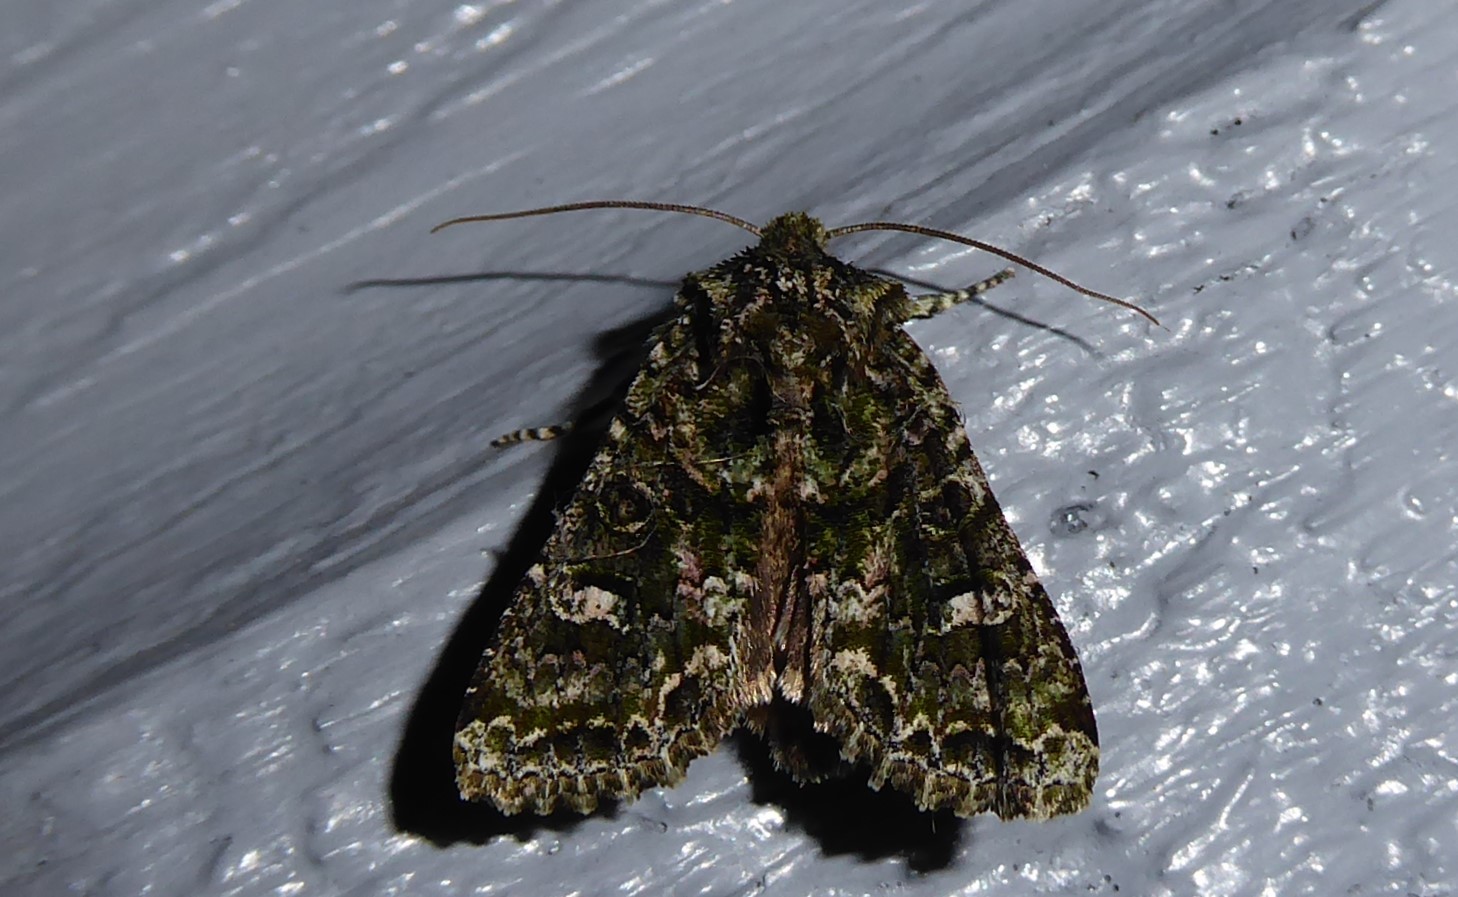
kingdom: Animalia
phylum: Arthropoda
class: Insecta
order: Lepidoptera
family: Noctuidae
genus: Ichneutica
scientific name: Ichneutica
